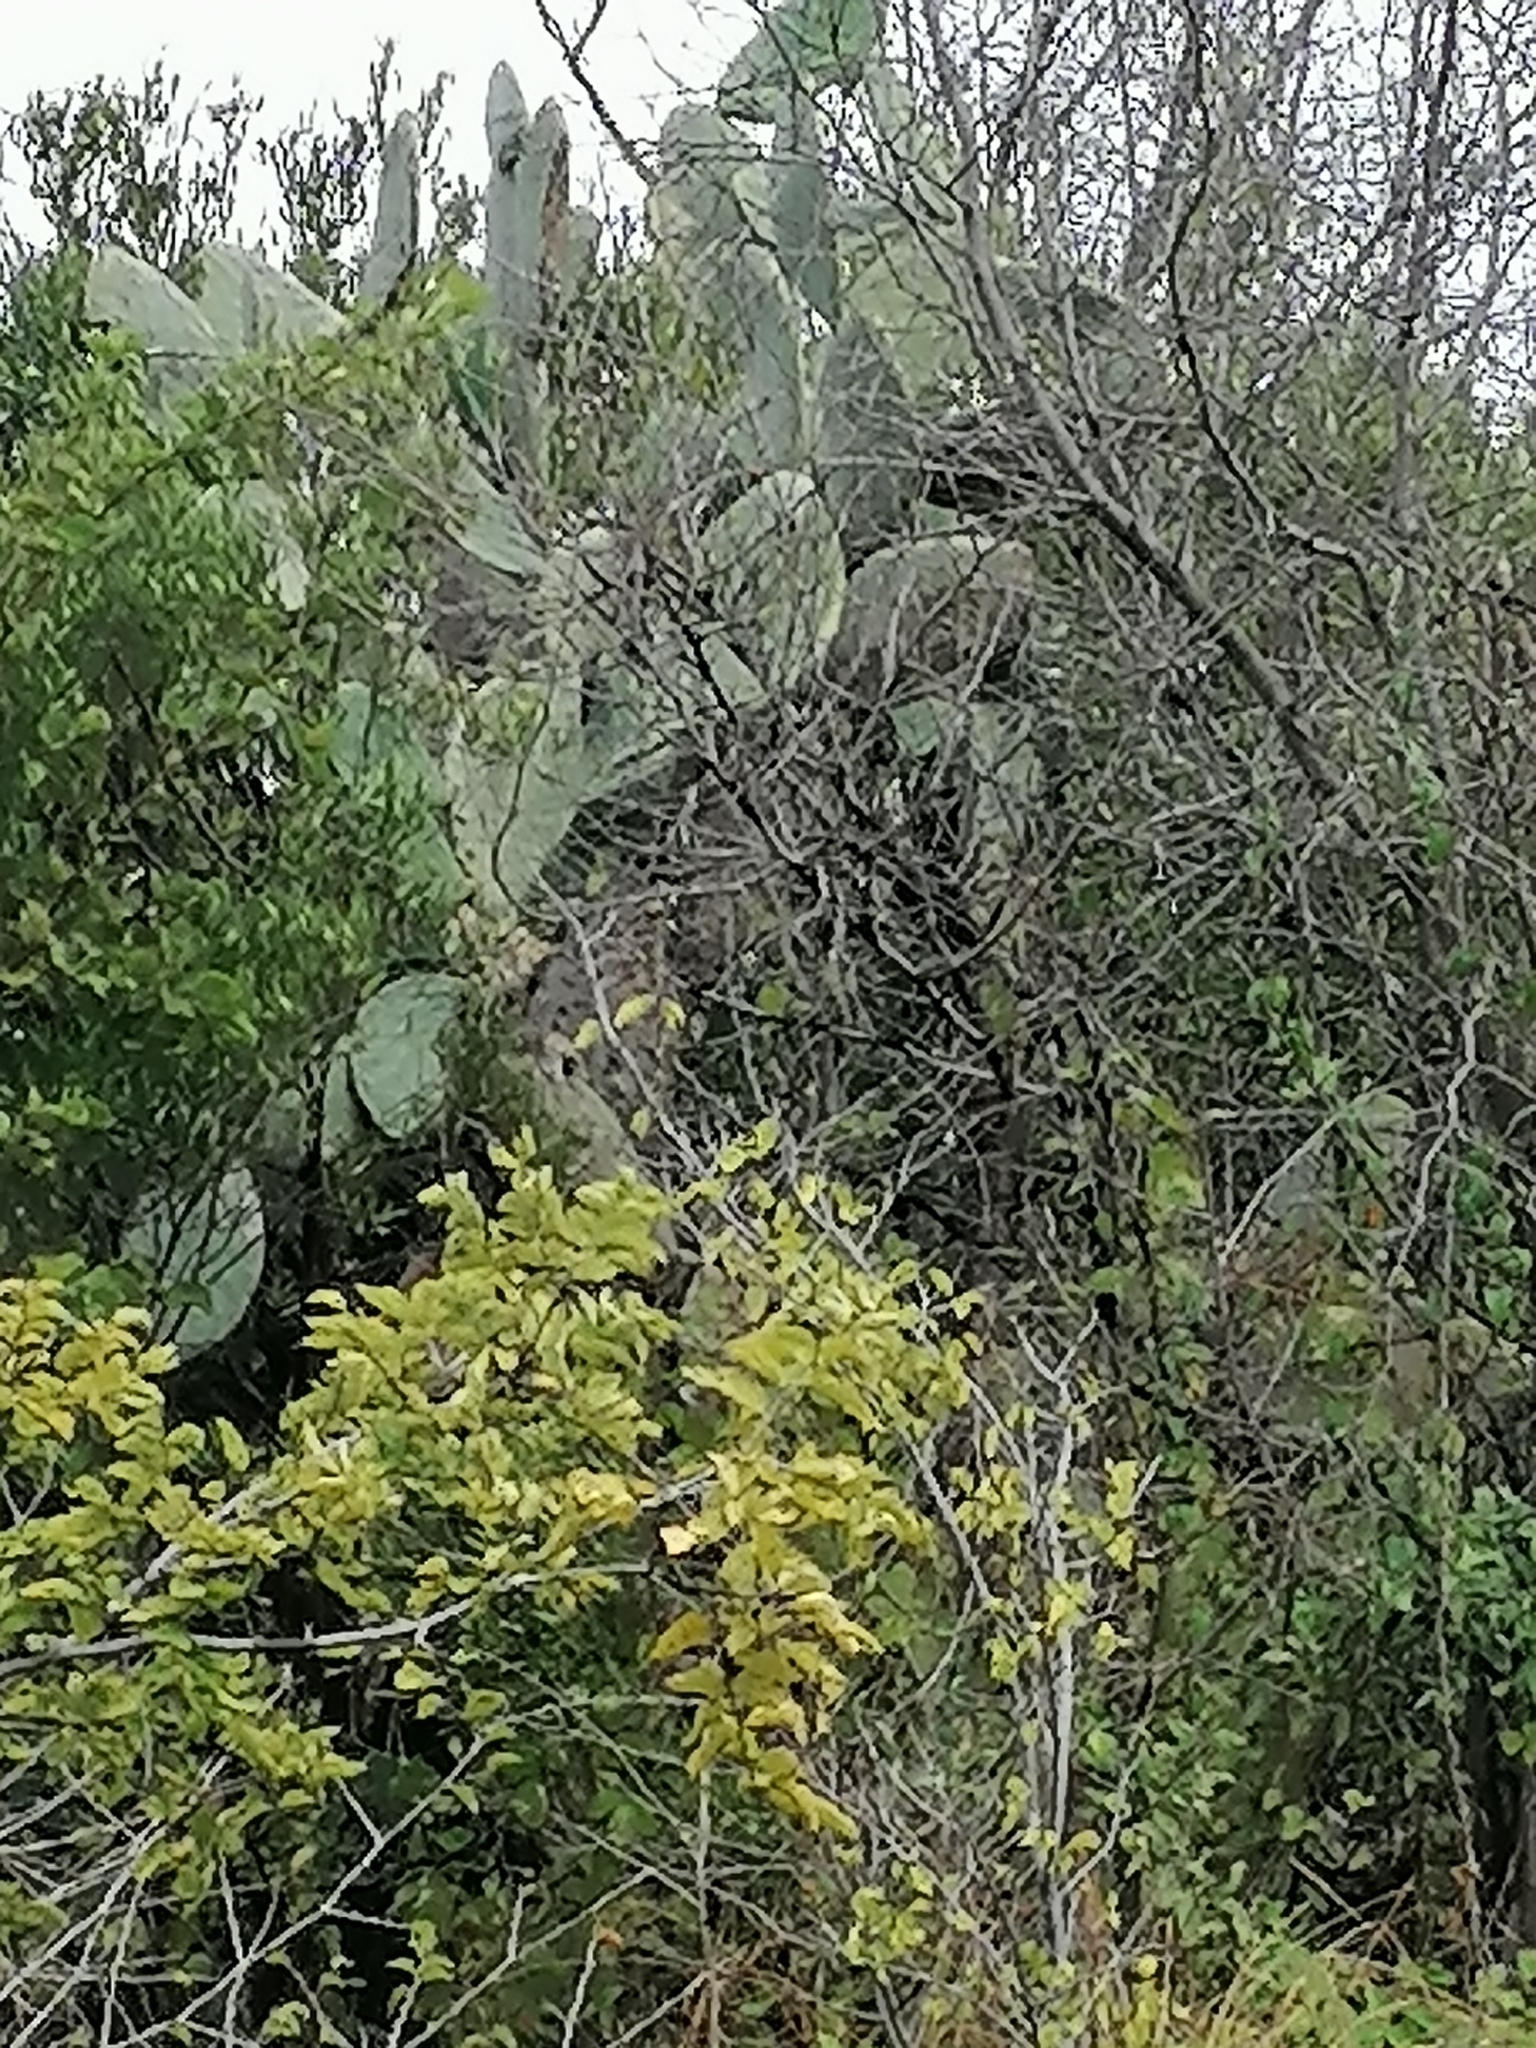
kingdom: Plantae
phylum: Tracheophyta
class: Magnoliopsida
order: Caryophyllales
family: Cactaceae
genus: Opuntia
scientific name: Opuntia ficus-indica
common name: Barbary fig
